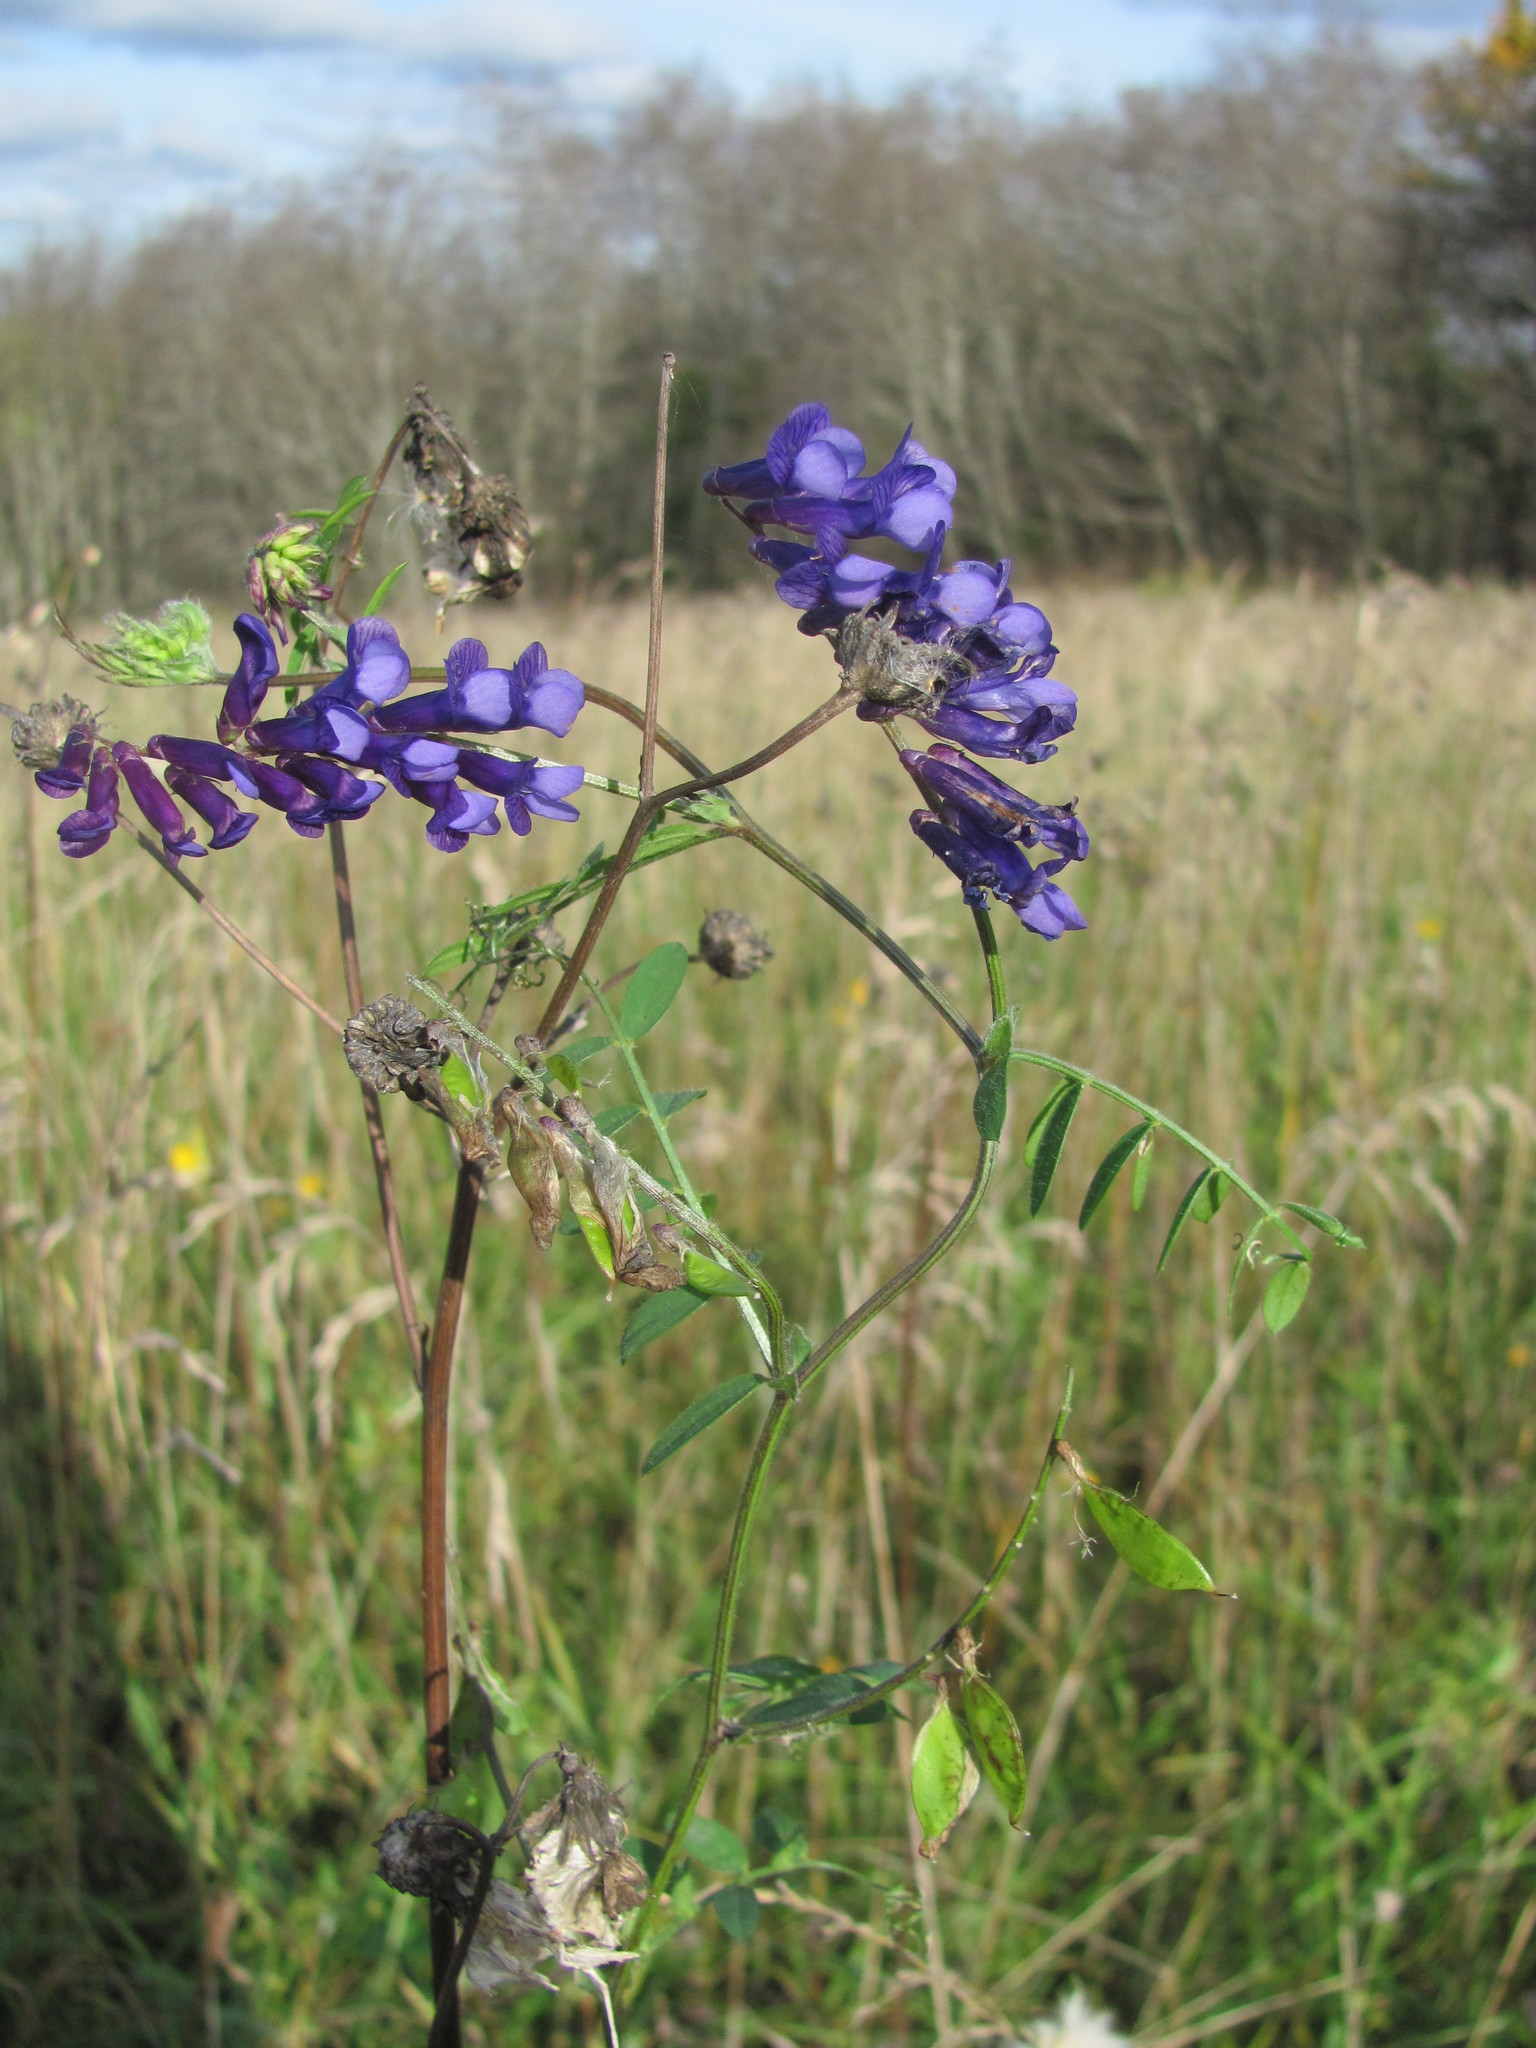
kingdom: Plantae
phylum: Tracheophyta
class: Magnoliopsida
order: Fabales
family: Fabaceae
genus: Vicia
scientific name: Vicia villosa
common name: Fodder vetch
